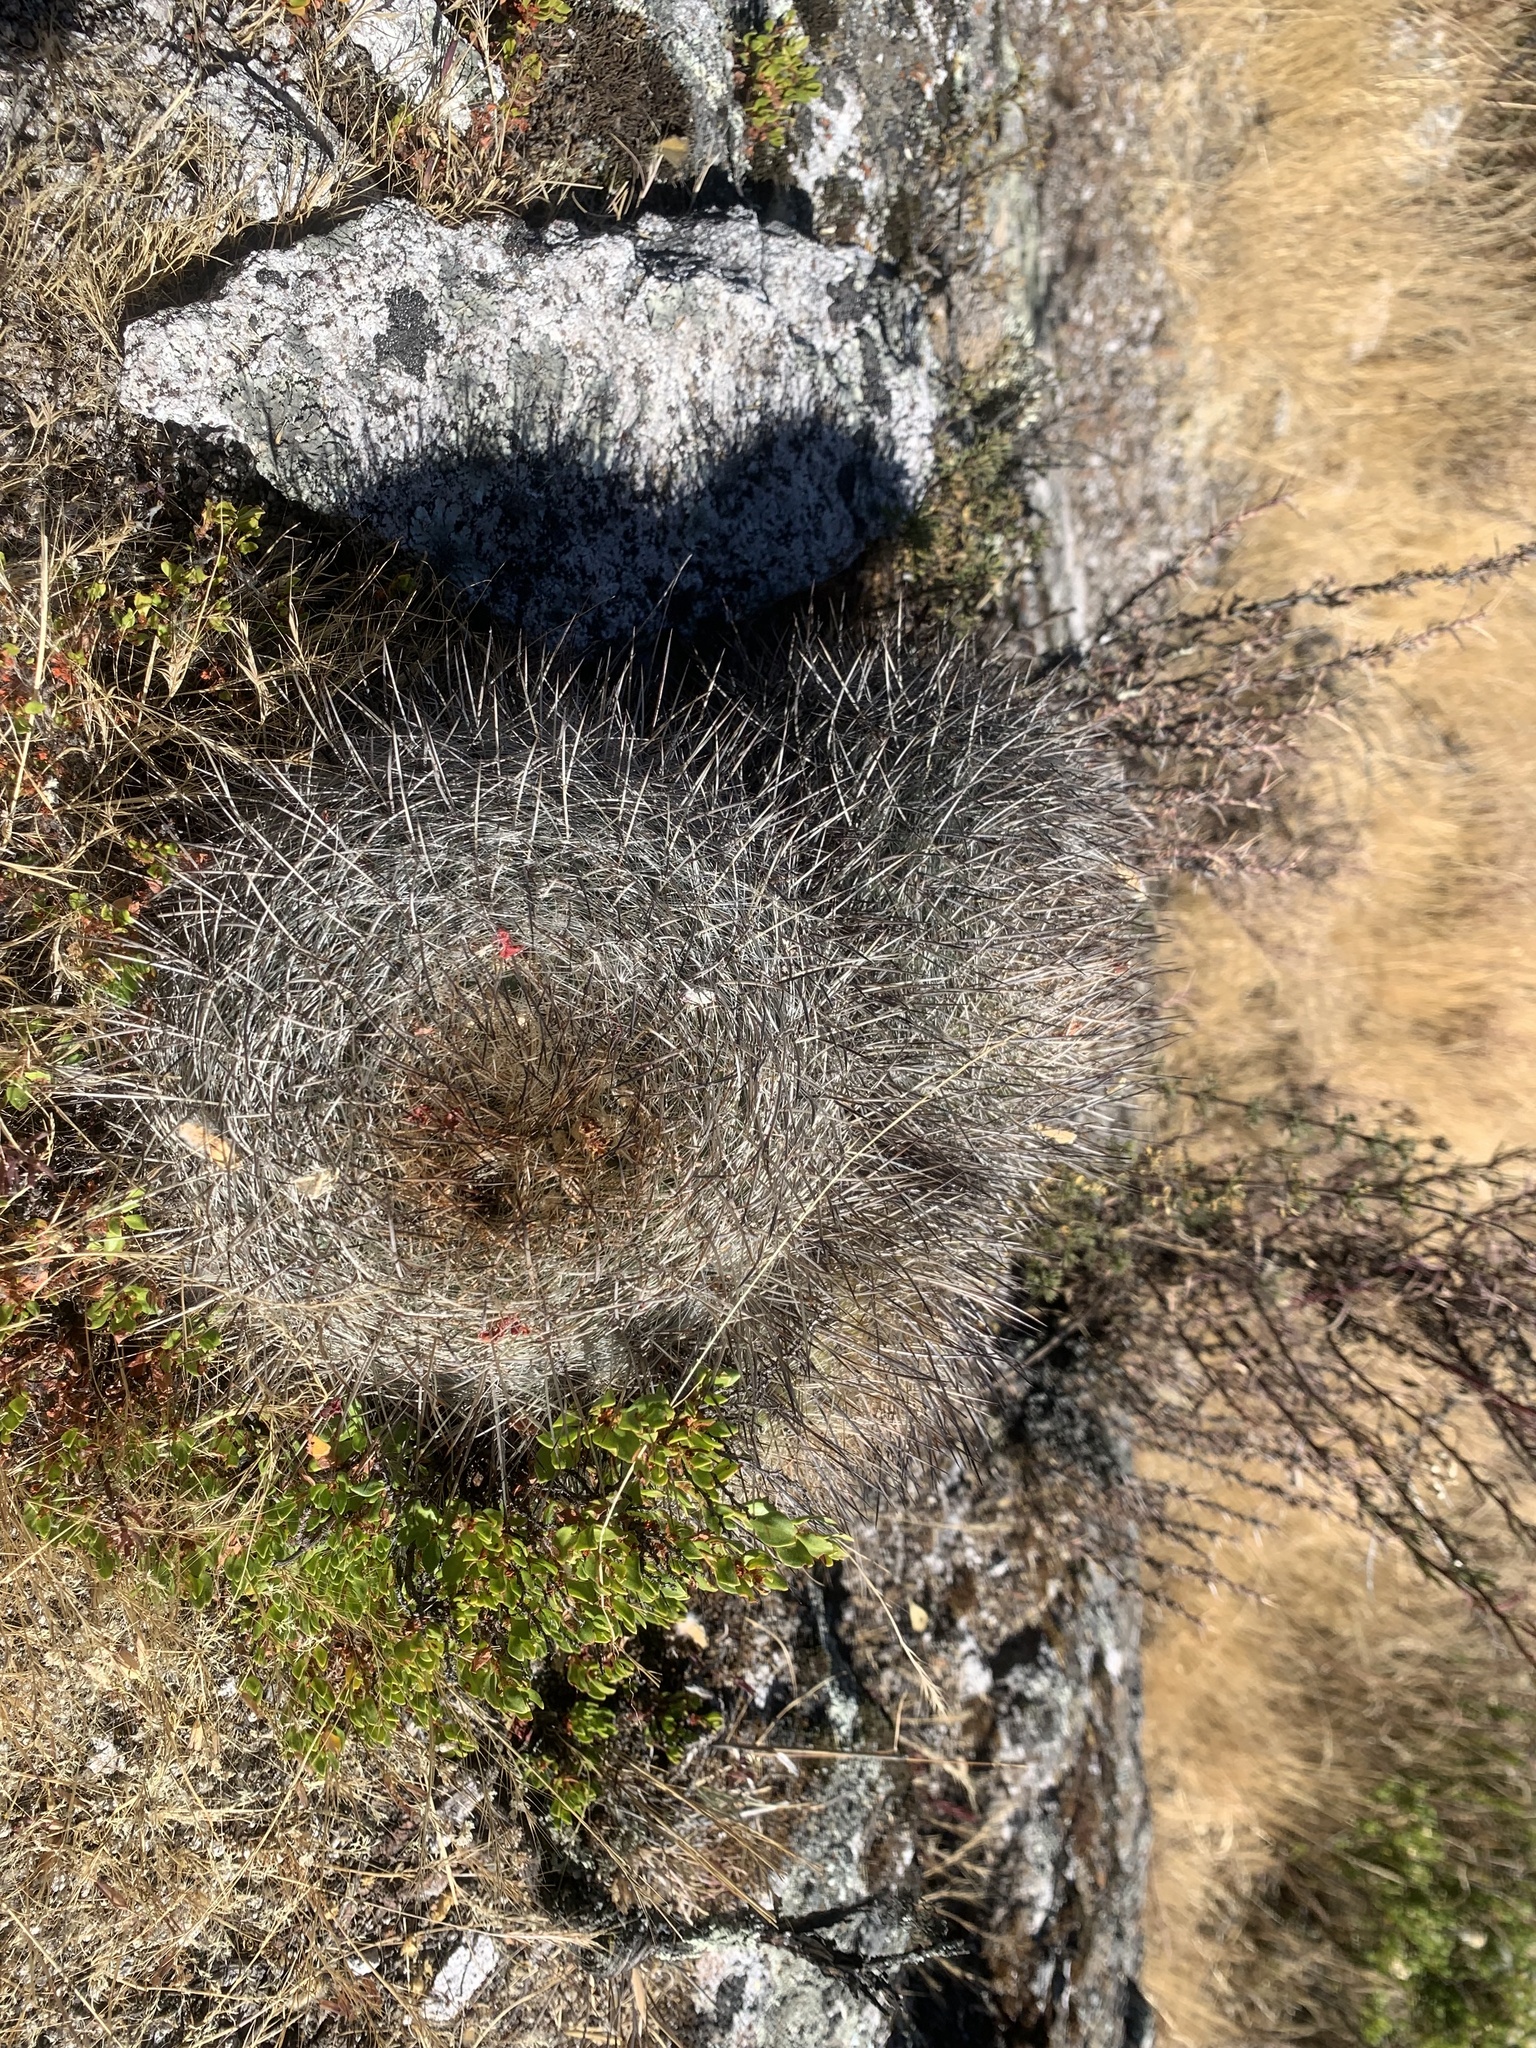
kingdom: Plantae
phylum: Tracheophyta
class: Magnoliopsida
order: Caryophyllales
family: Cactaceae
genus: Matucana
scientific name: Matucana haynii
